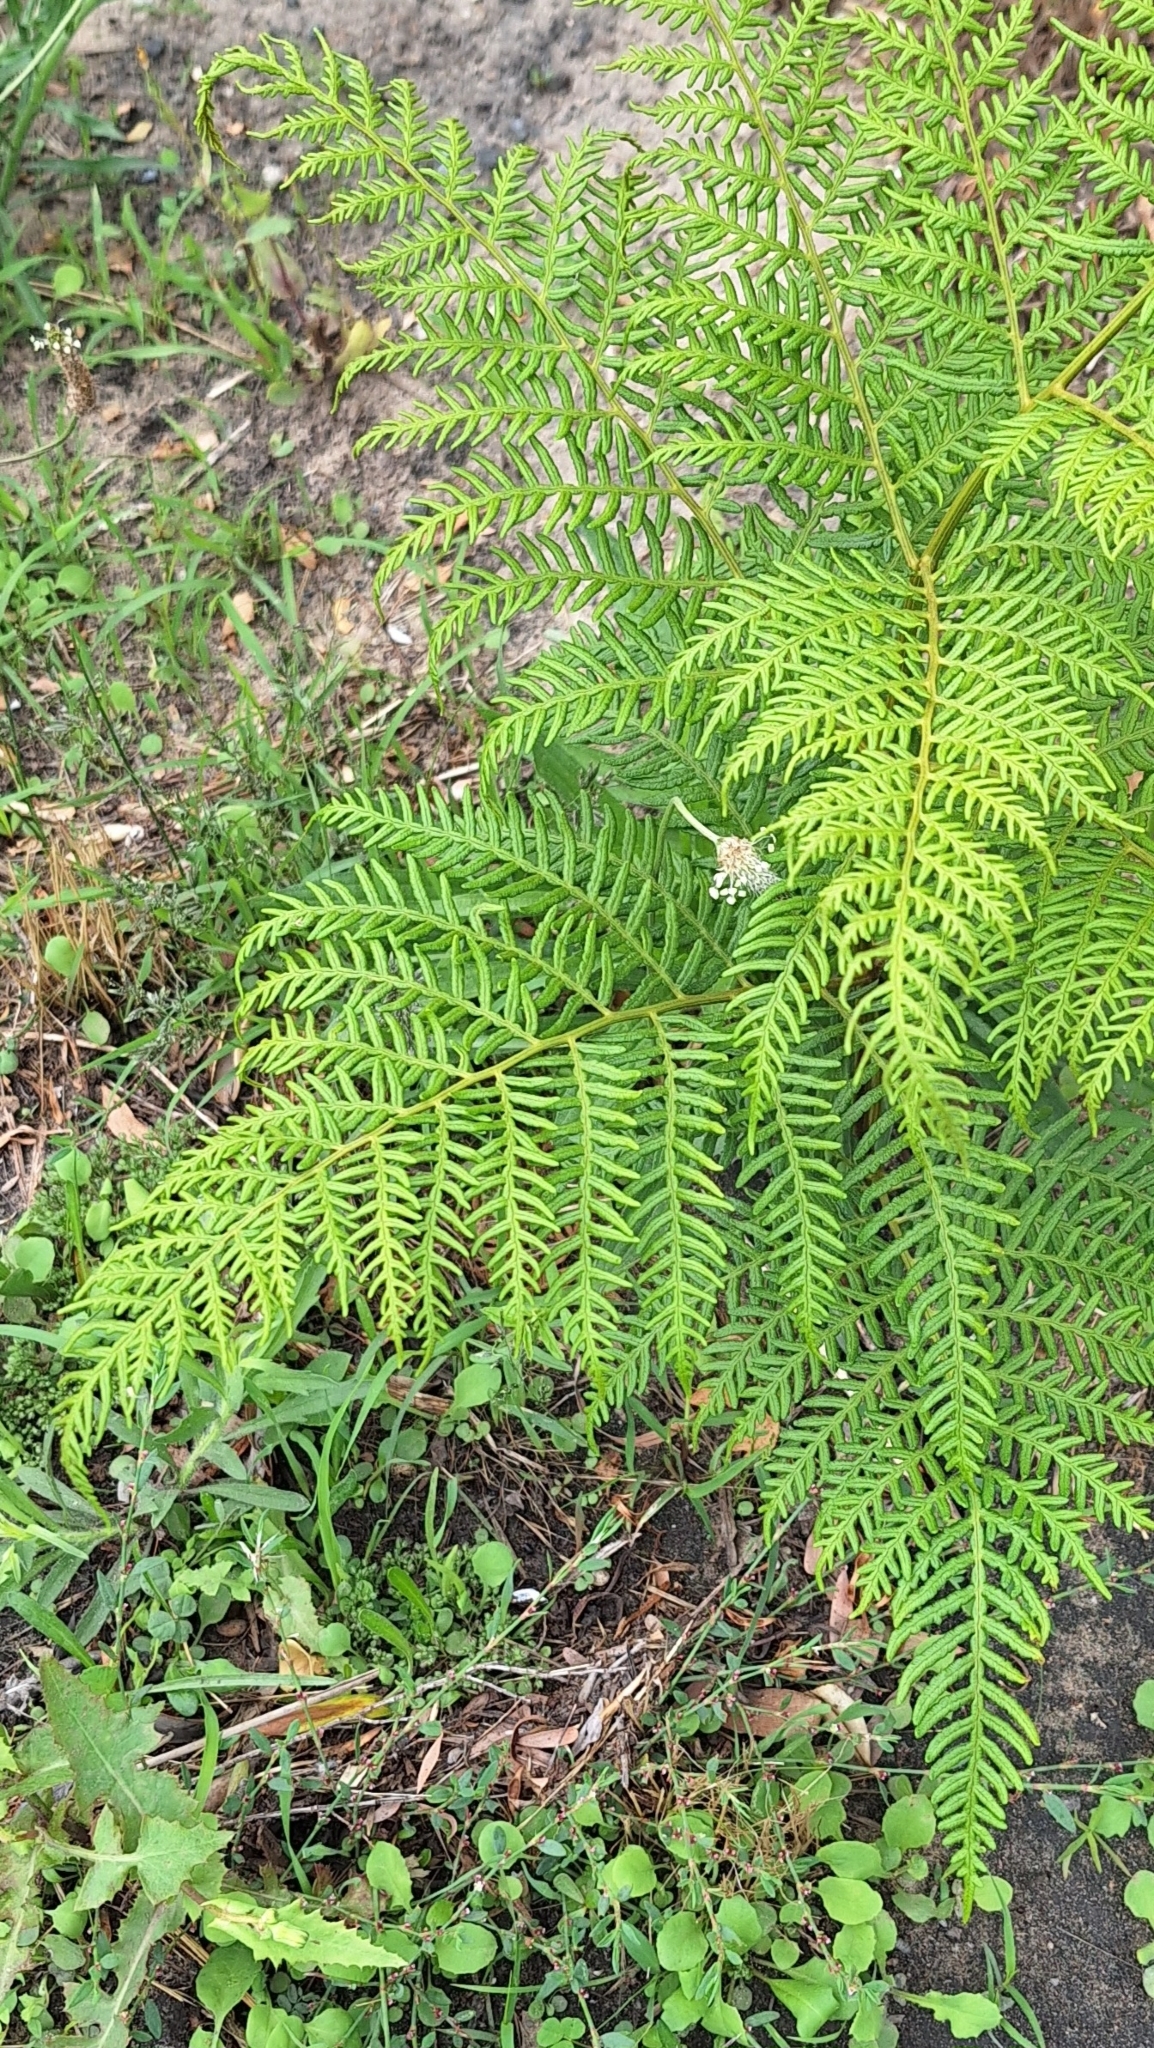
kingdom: Plantae
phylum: Tracheophyta
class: Polypodiopsida
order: Polypodiales
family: Dennstaedtiaceae
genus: Pteridium
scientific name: Pteridium esculentum
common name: Bracken fern
